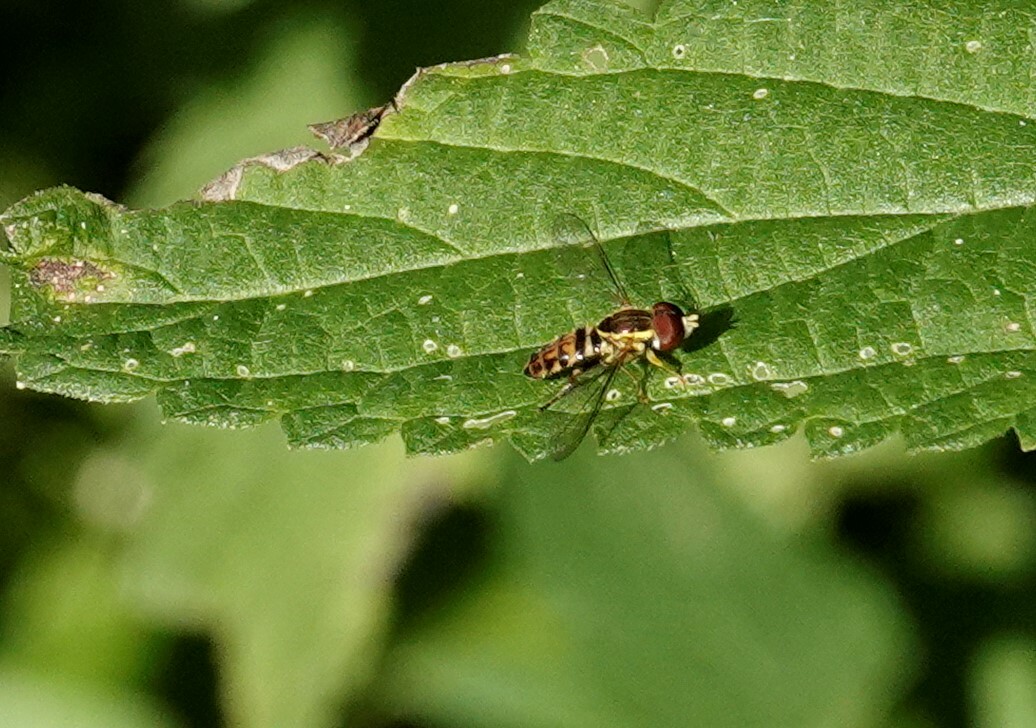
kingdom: Animalia
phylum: Arthropoda
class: Insecta
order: Diptera
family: Syrphidae
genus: Toxomerus
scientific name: Toxomerus geminatus
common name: Eastern calligrapher
